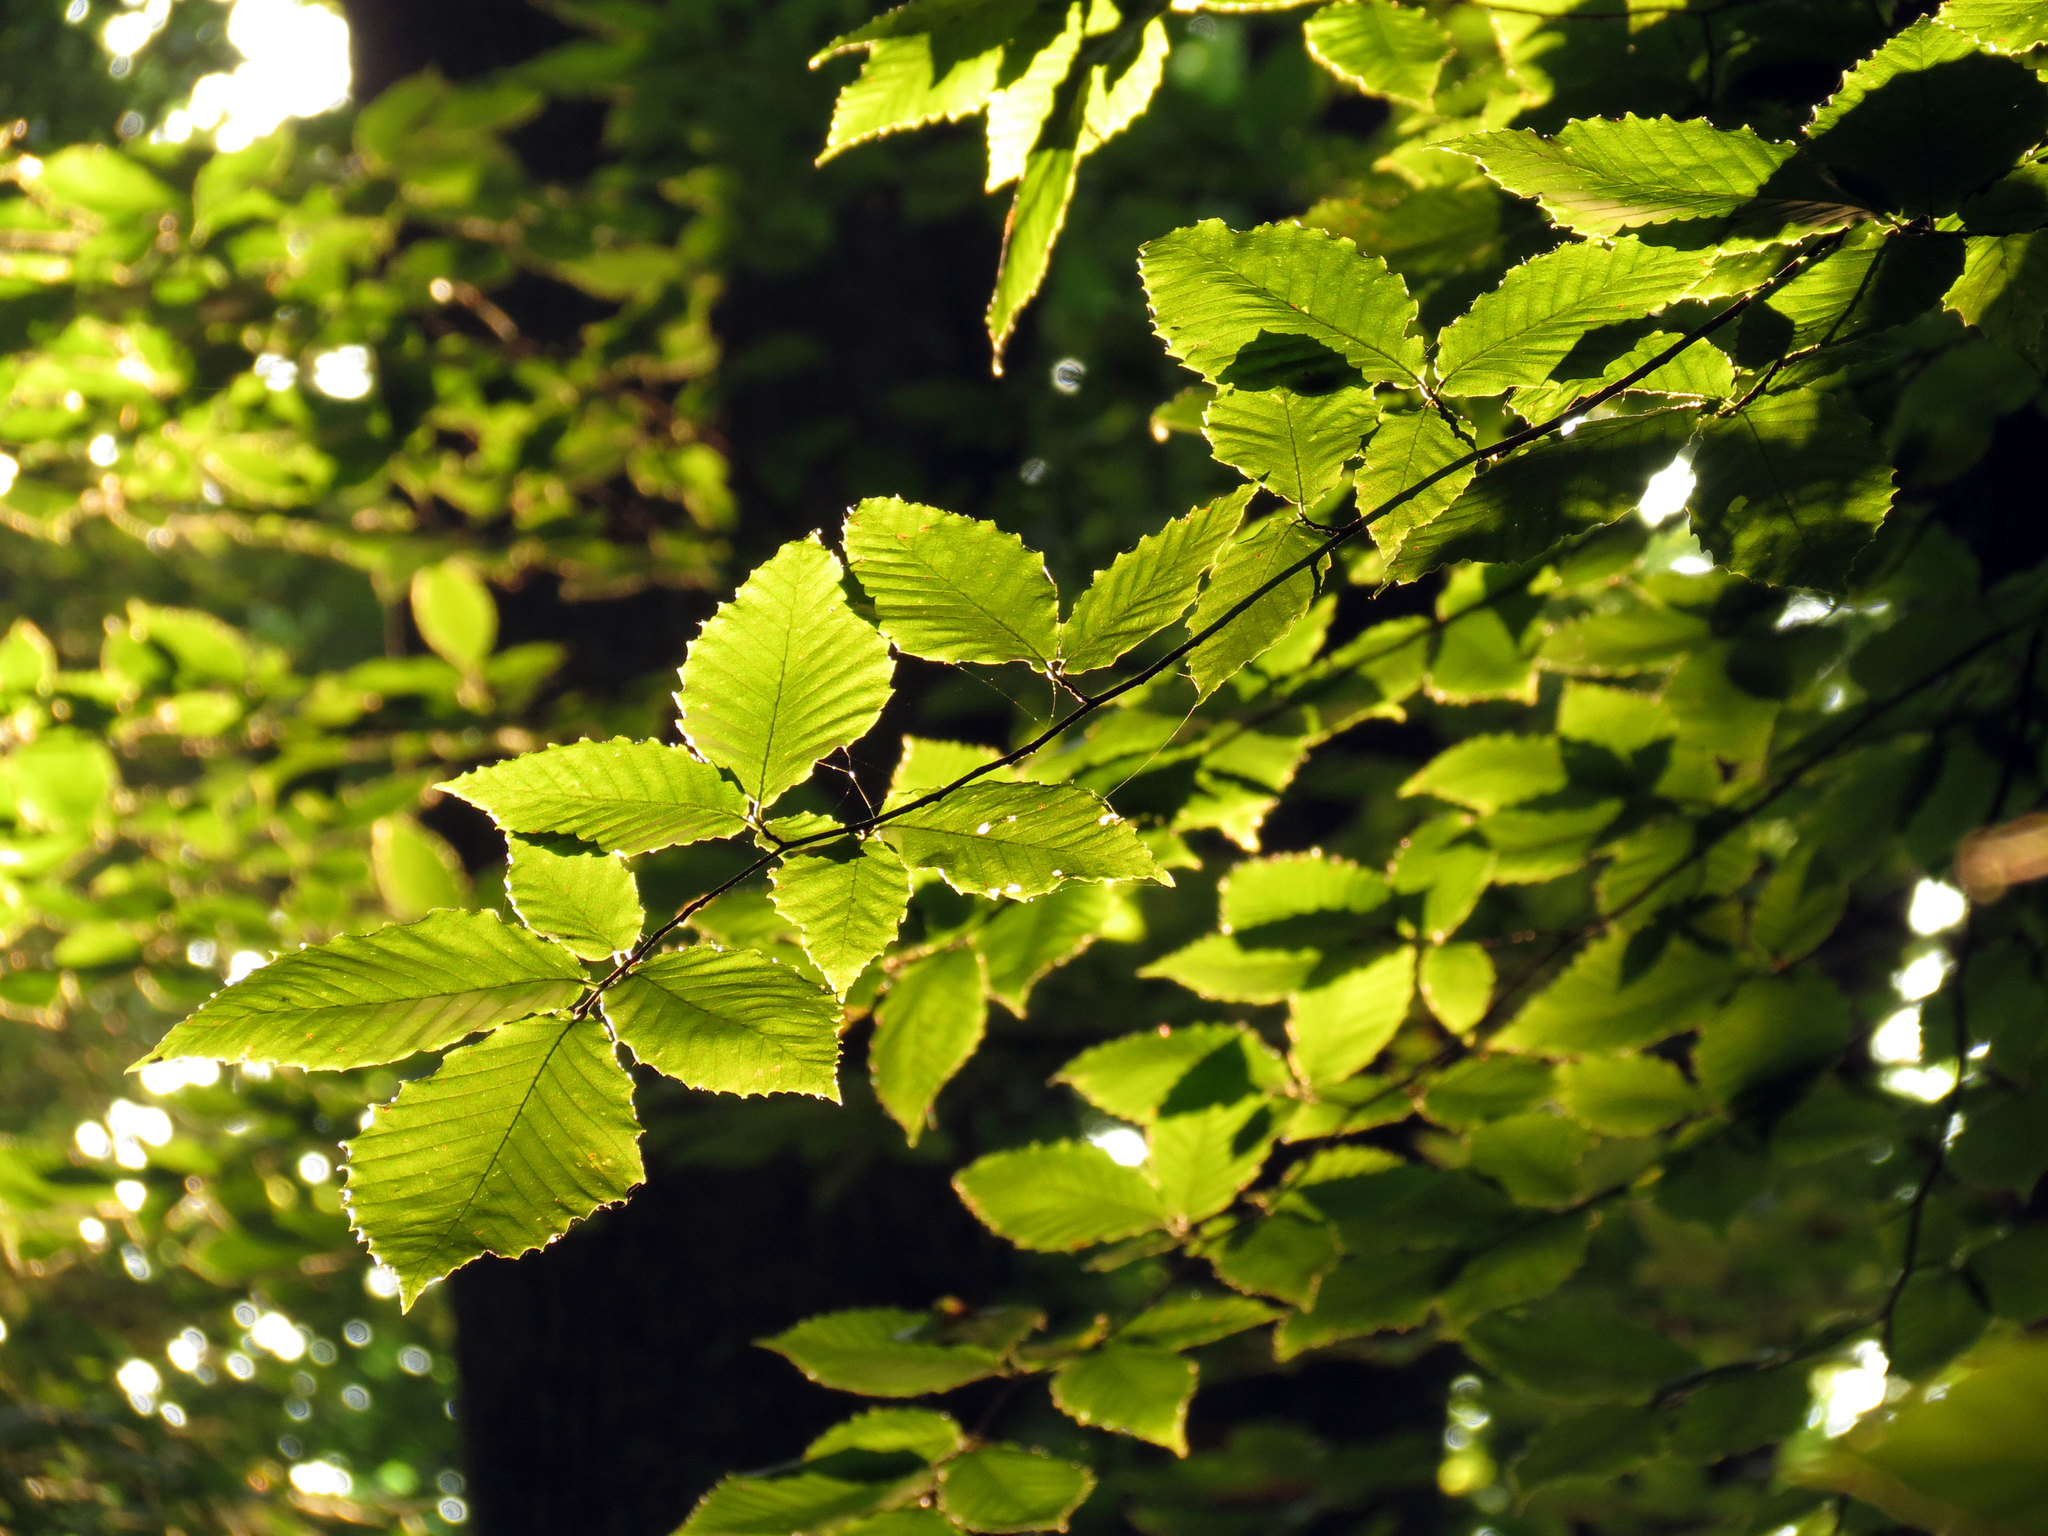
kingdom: Plantae
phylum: Tracheophyta
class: Magnoliopsida
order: Fagales
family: Fagaceae
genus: Fagus
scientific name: Fagus grandifolia
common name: American beech
